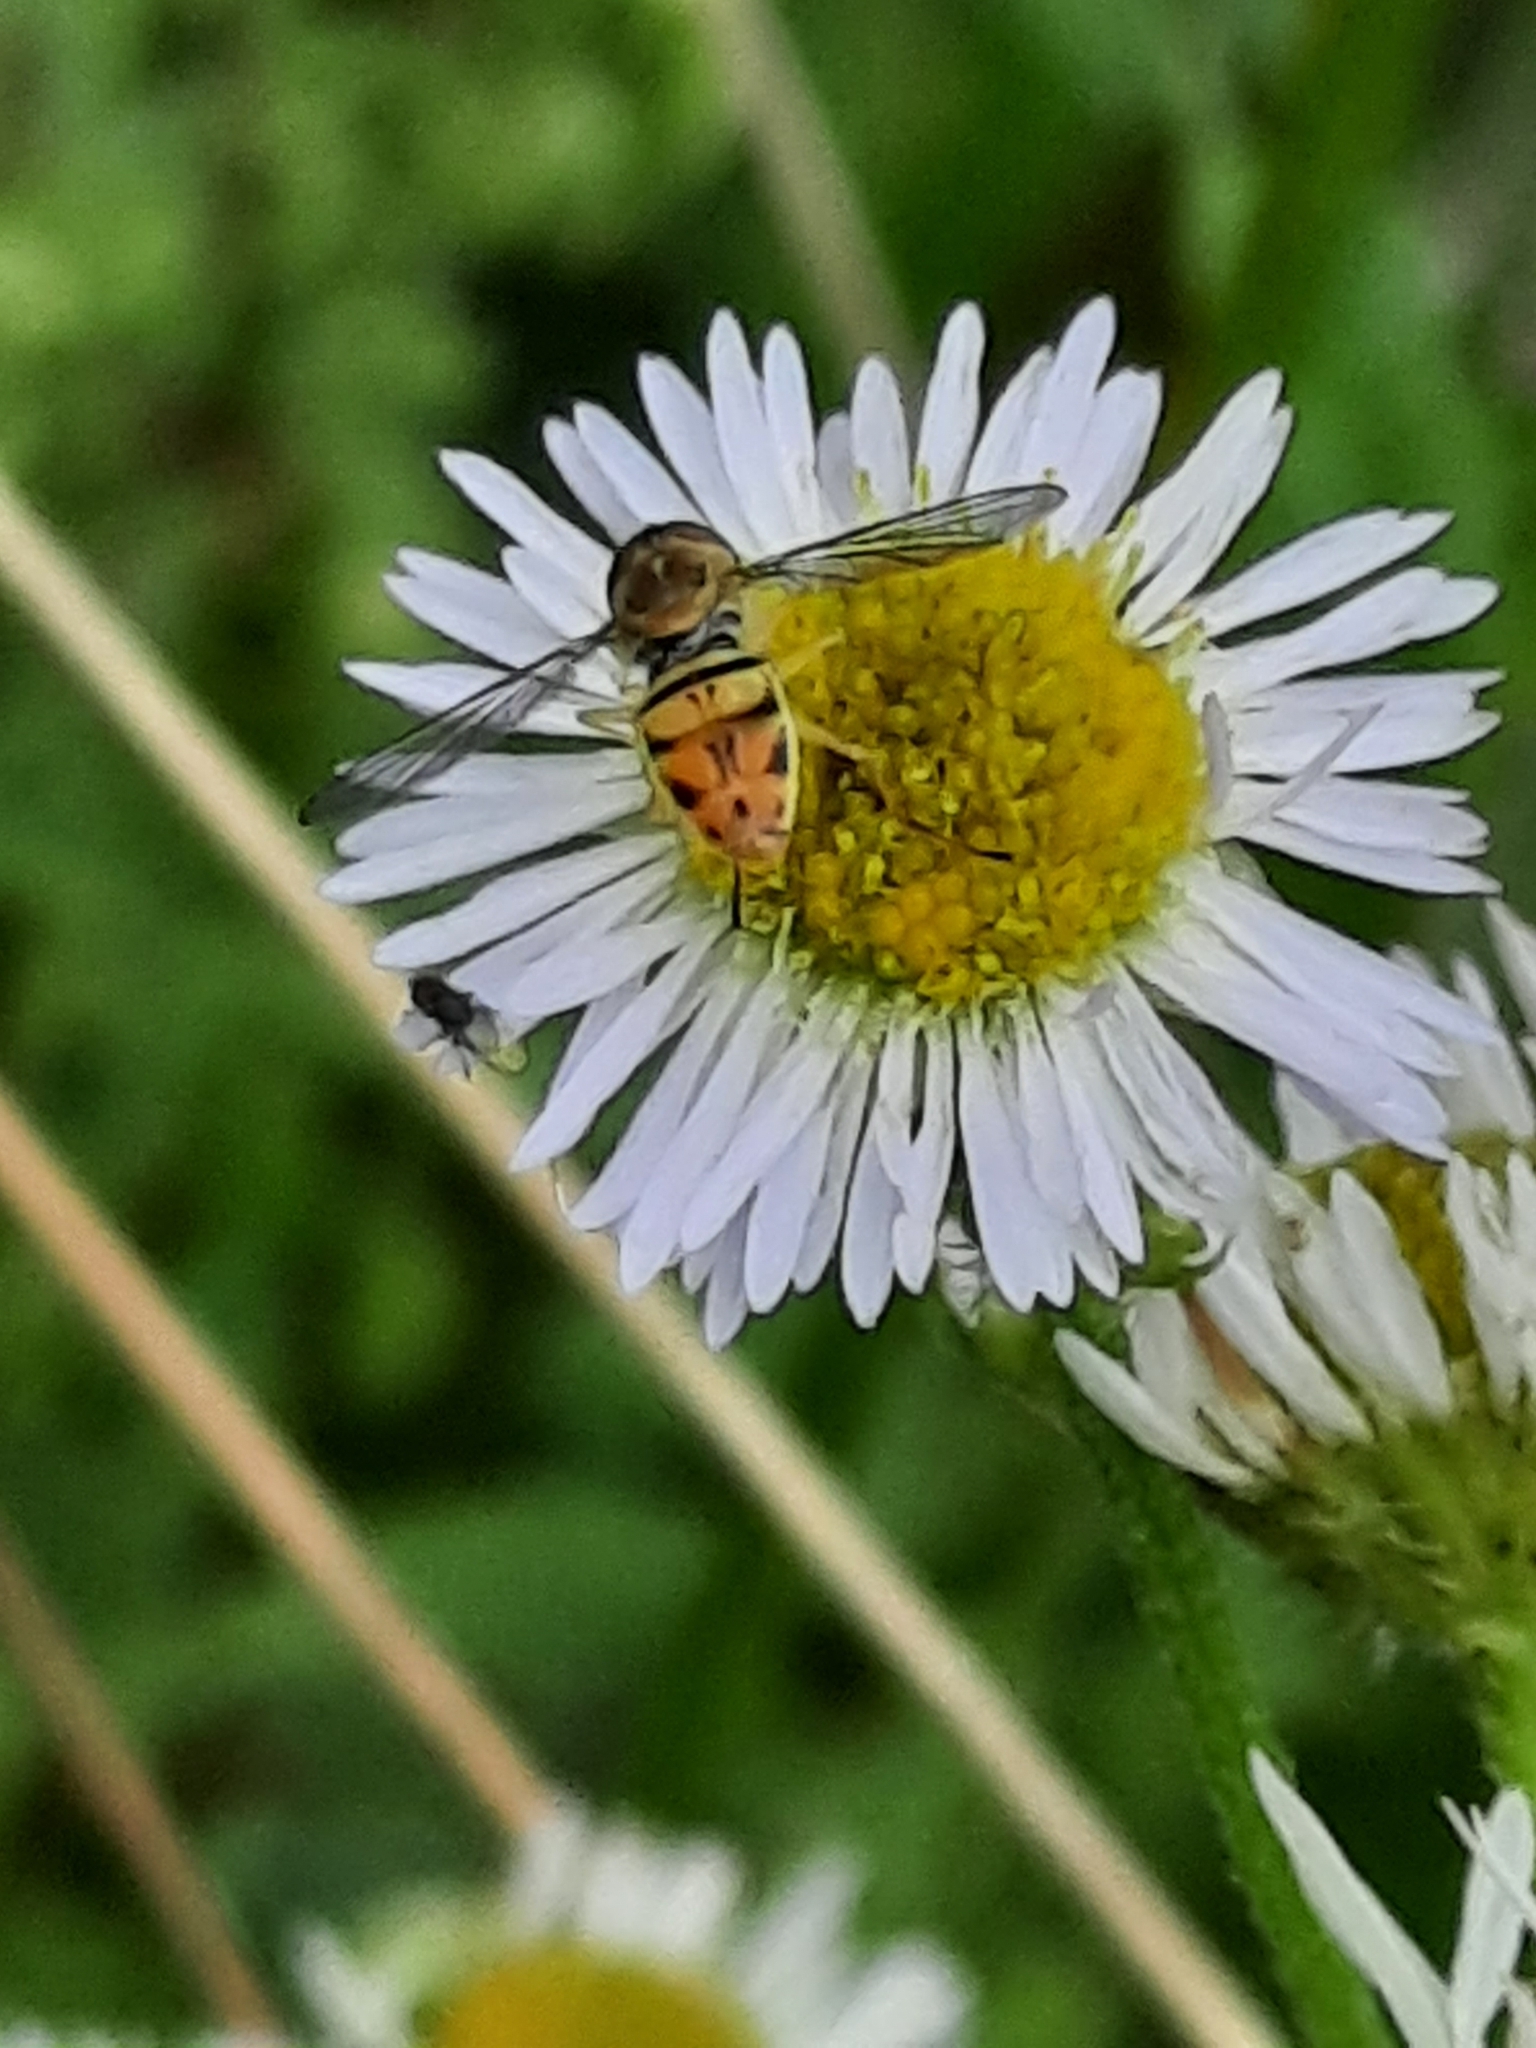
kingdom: Animalia
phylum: Arthropoda
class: Insecta
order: Diptera
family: Syrphidae
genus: Toxomerus
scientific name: Toxomerus marginatus
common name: Syrphid fly
